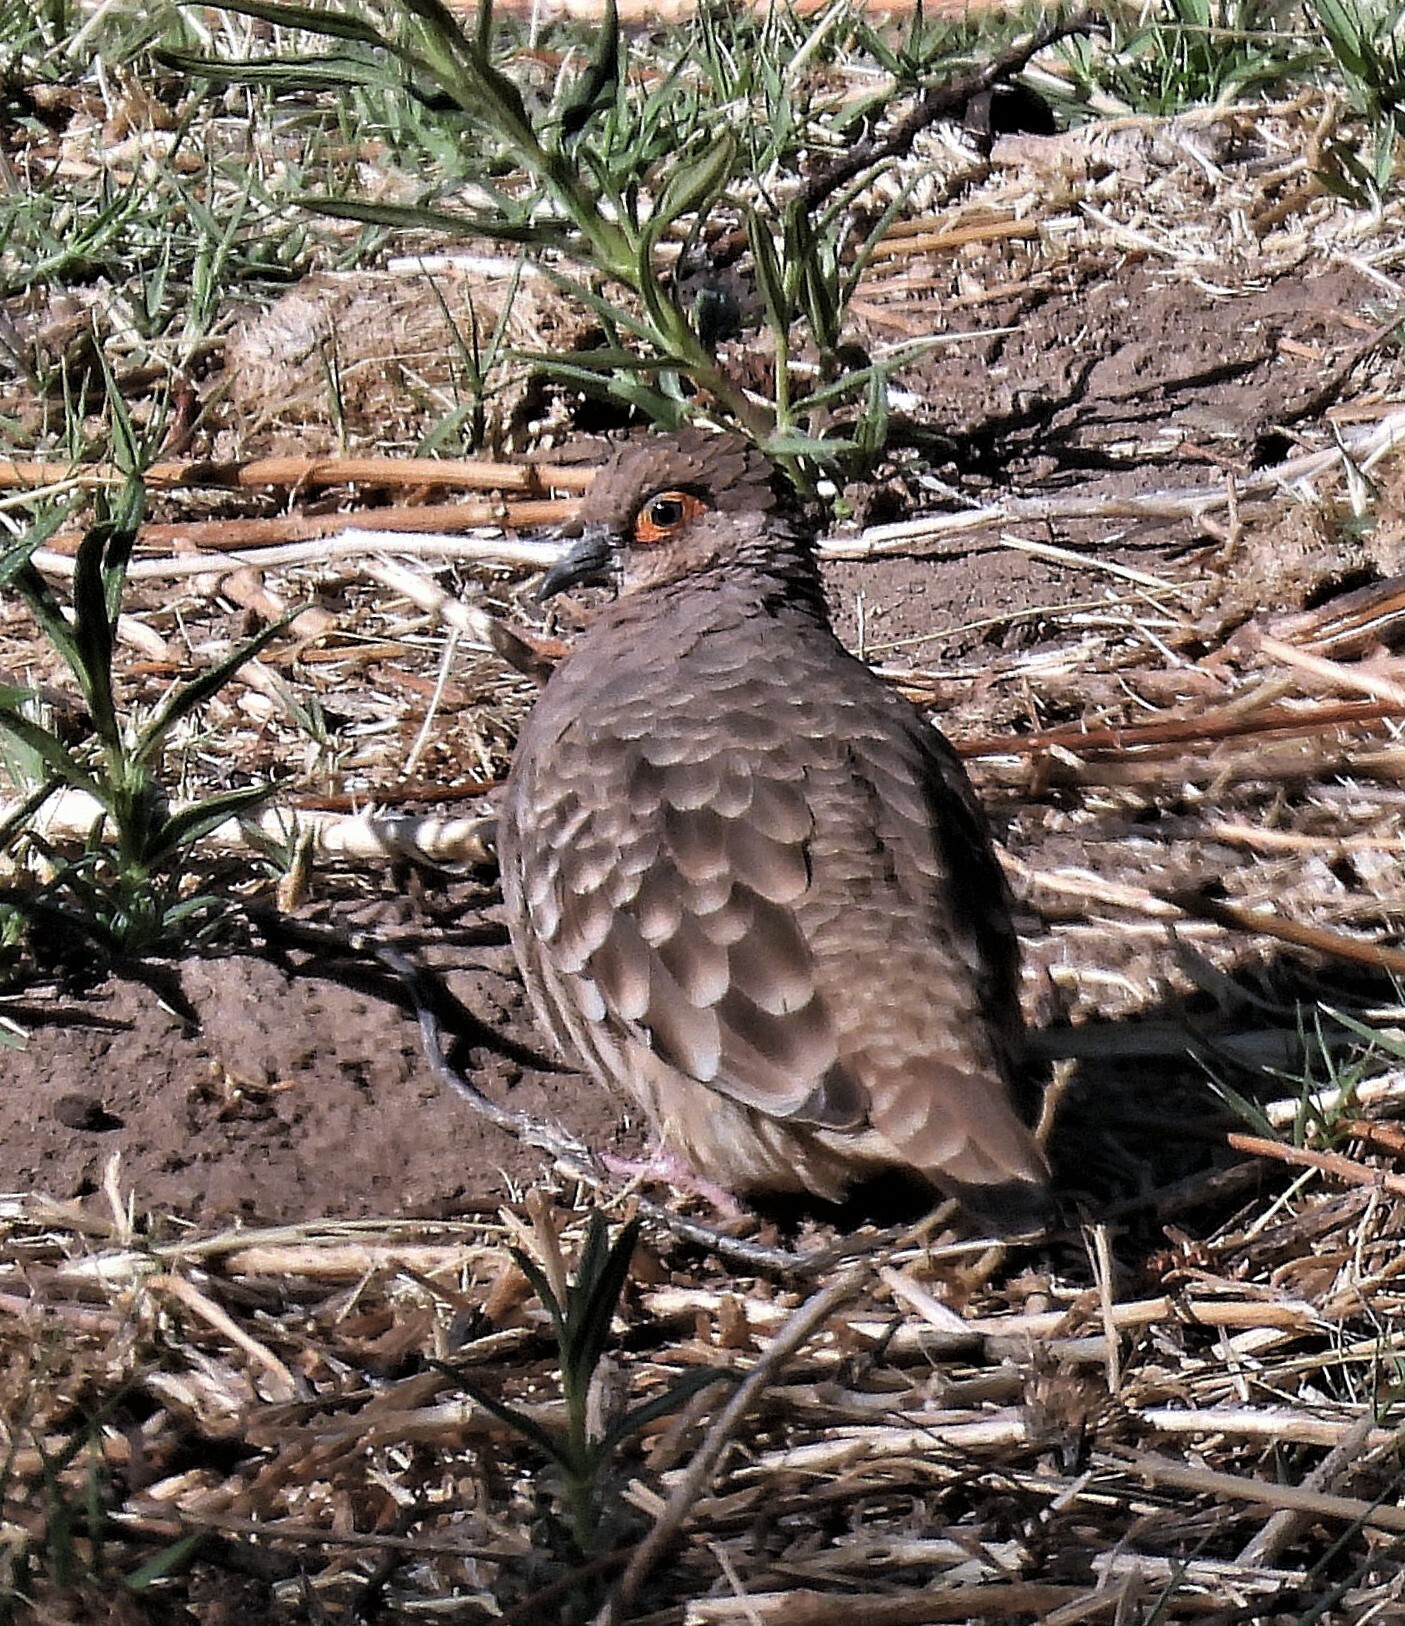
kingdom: Animalia
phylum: Chordata
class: Aves
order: Columbiformes
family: Columbidae
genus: Metriopelia
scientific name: Metriopelia ceciliae
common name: Bare-faced ground dove
